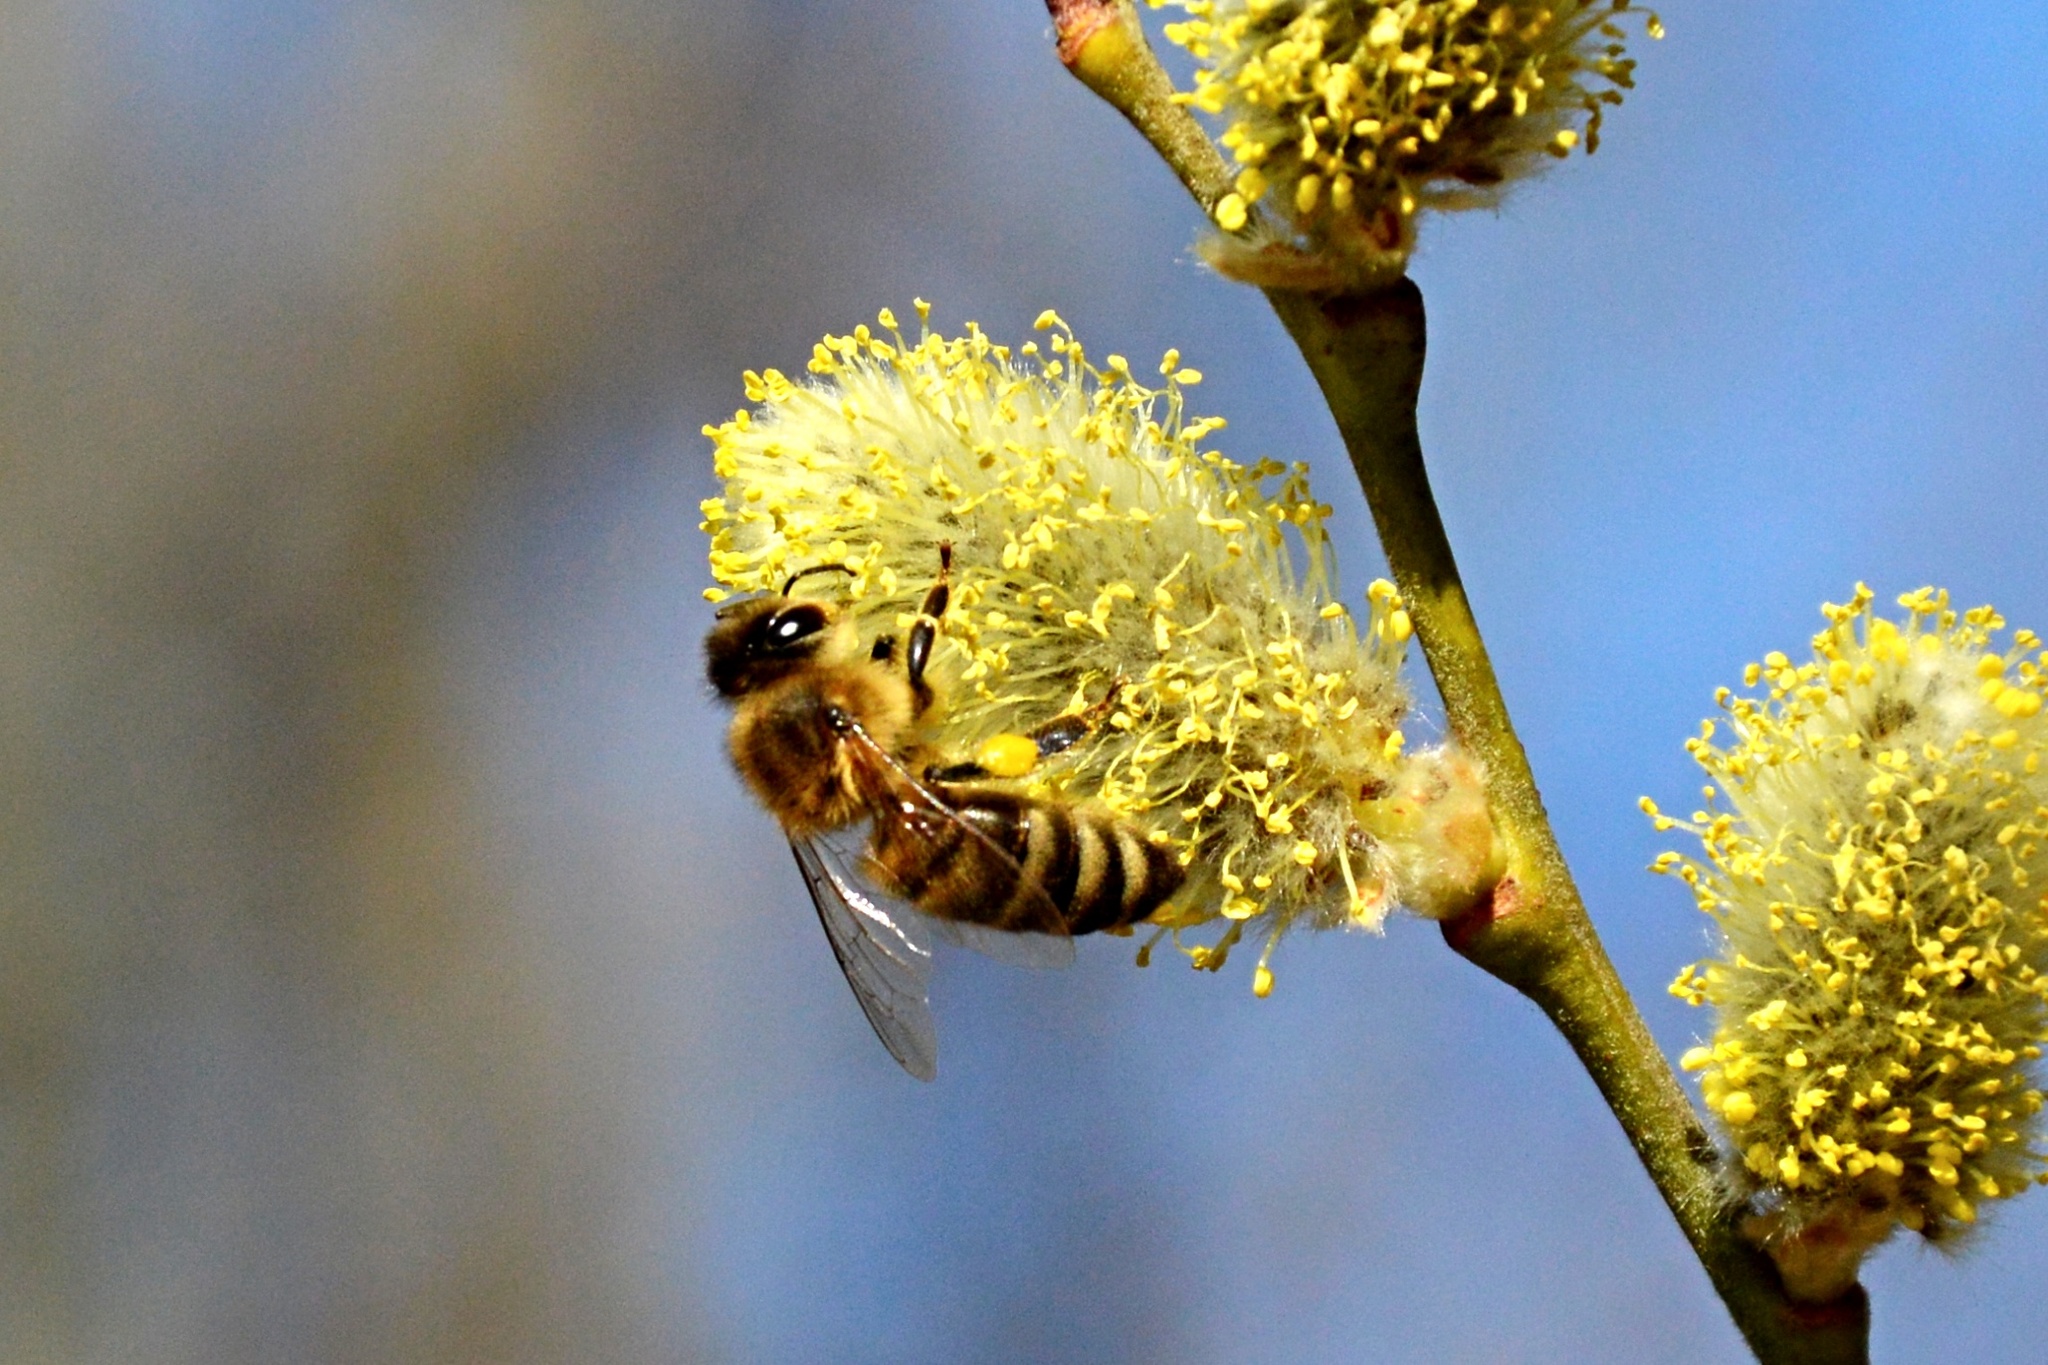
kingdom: Animalia
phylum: Arthropoda
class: Insecta
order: Hymenoptera
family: Apidae
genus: Apis
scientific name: Apis mellifera
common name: Honey bee
